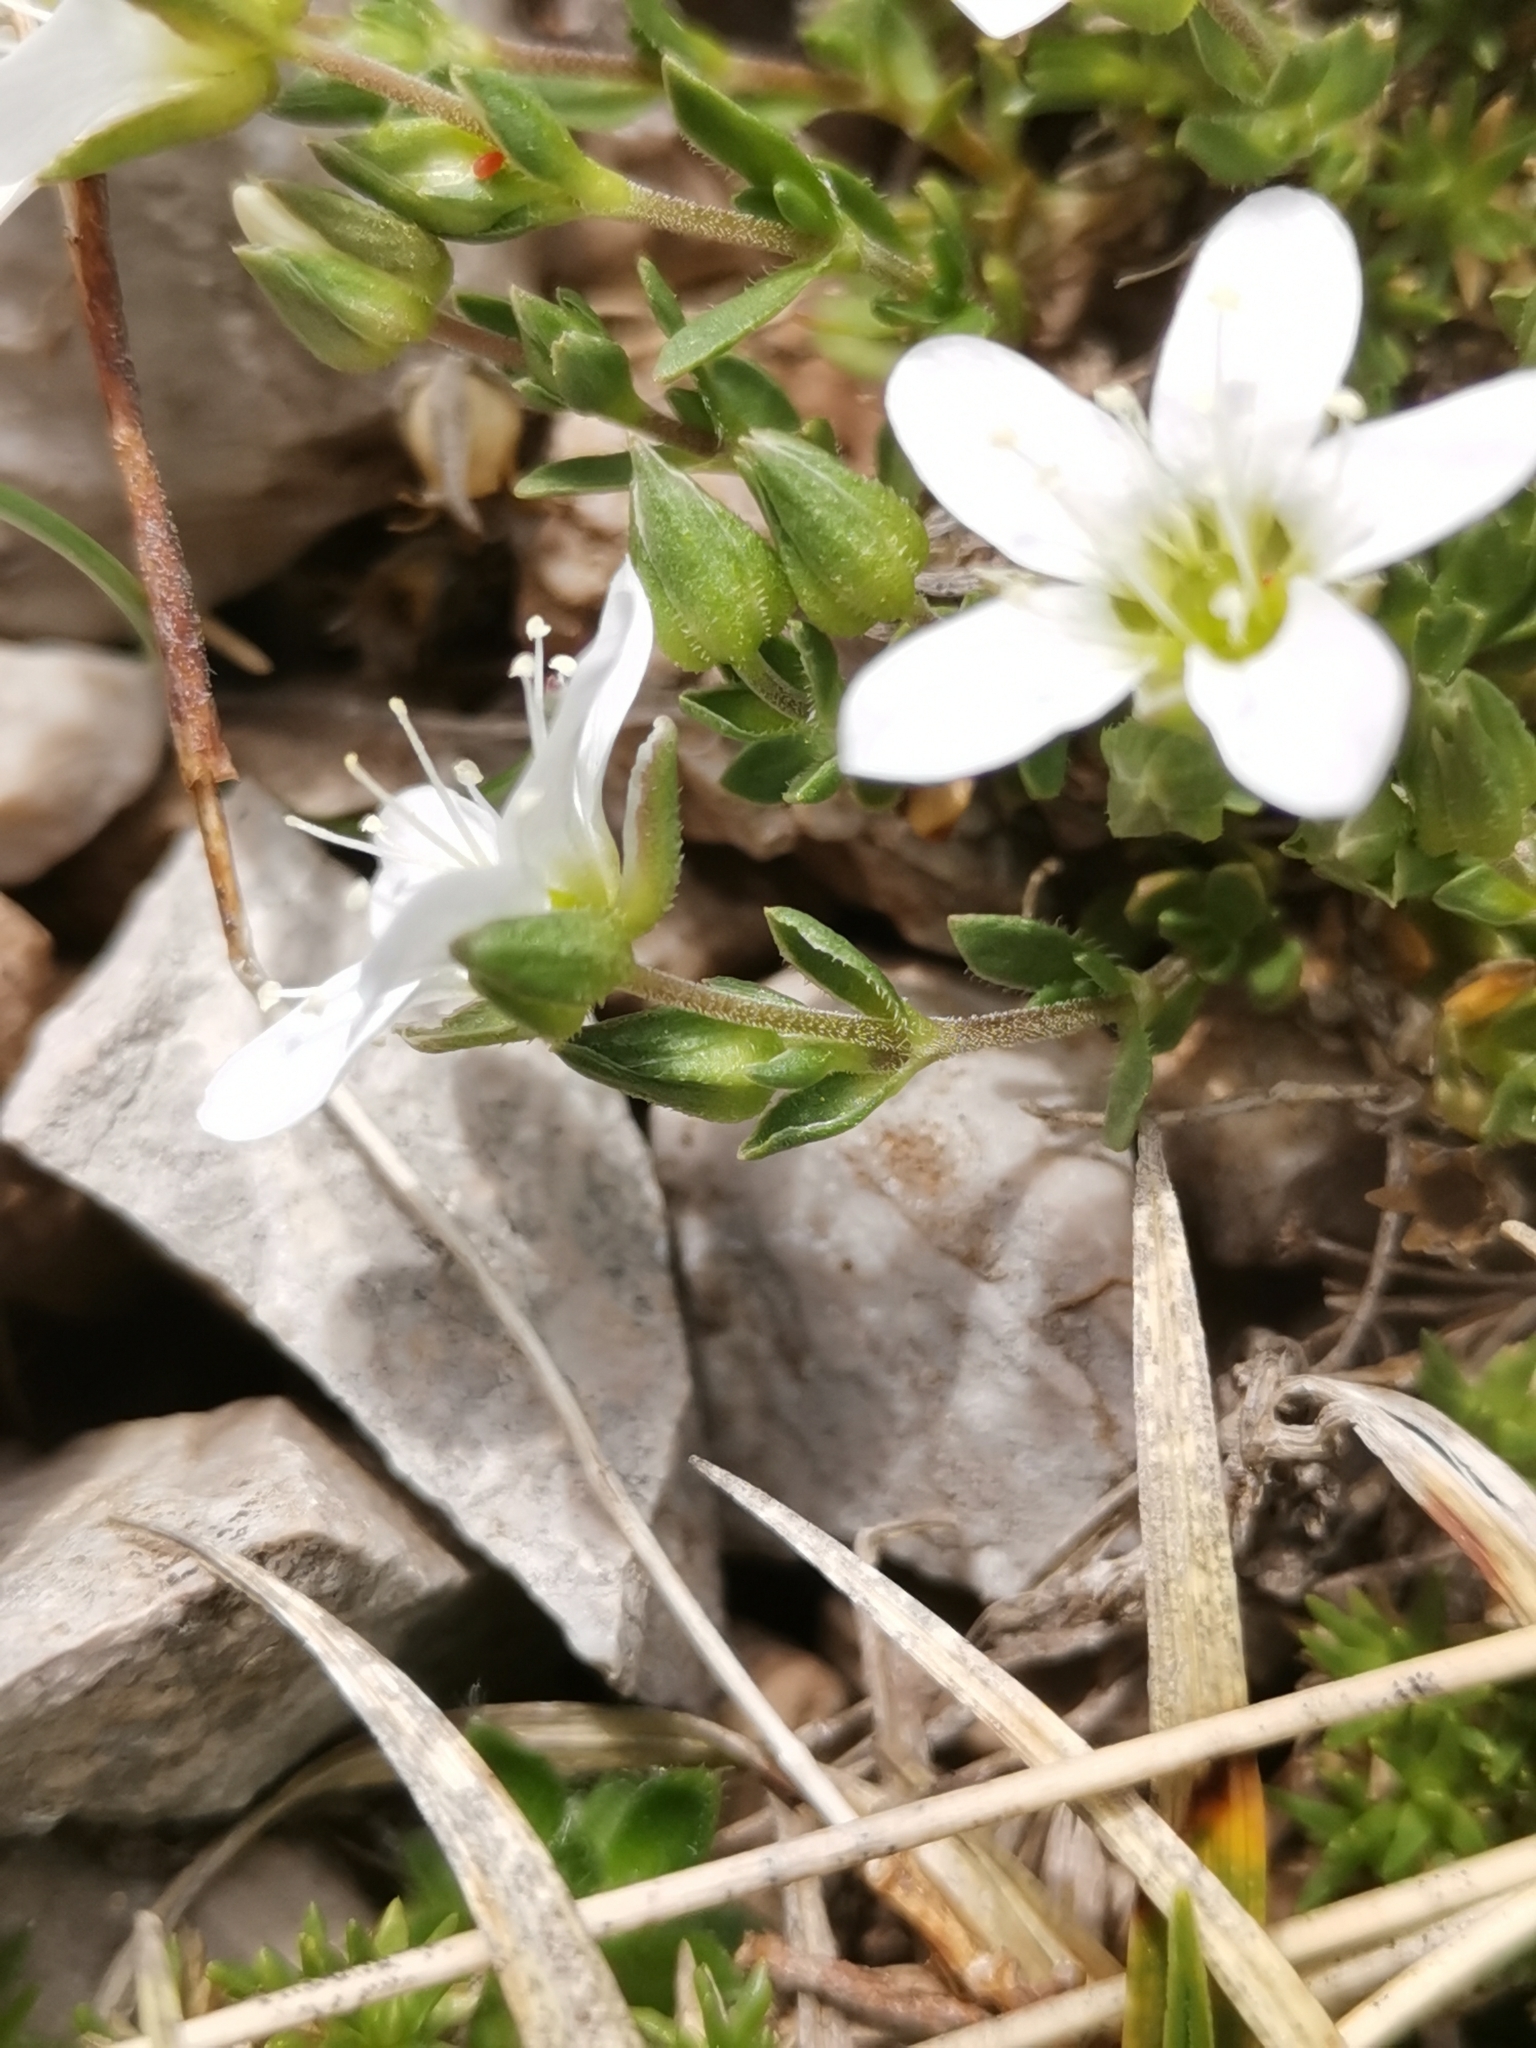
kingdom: Plantae
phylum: Tracheophyta
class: Magnoliopsida
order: Caryophyllales
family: Caryophyllaceae
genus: Arenaria
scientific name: Arenaria ciliata
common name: Fringed sandwort
